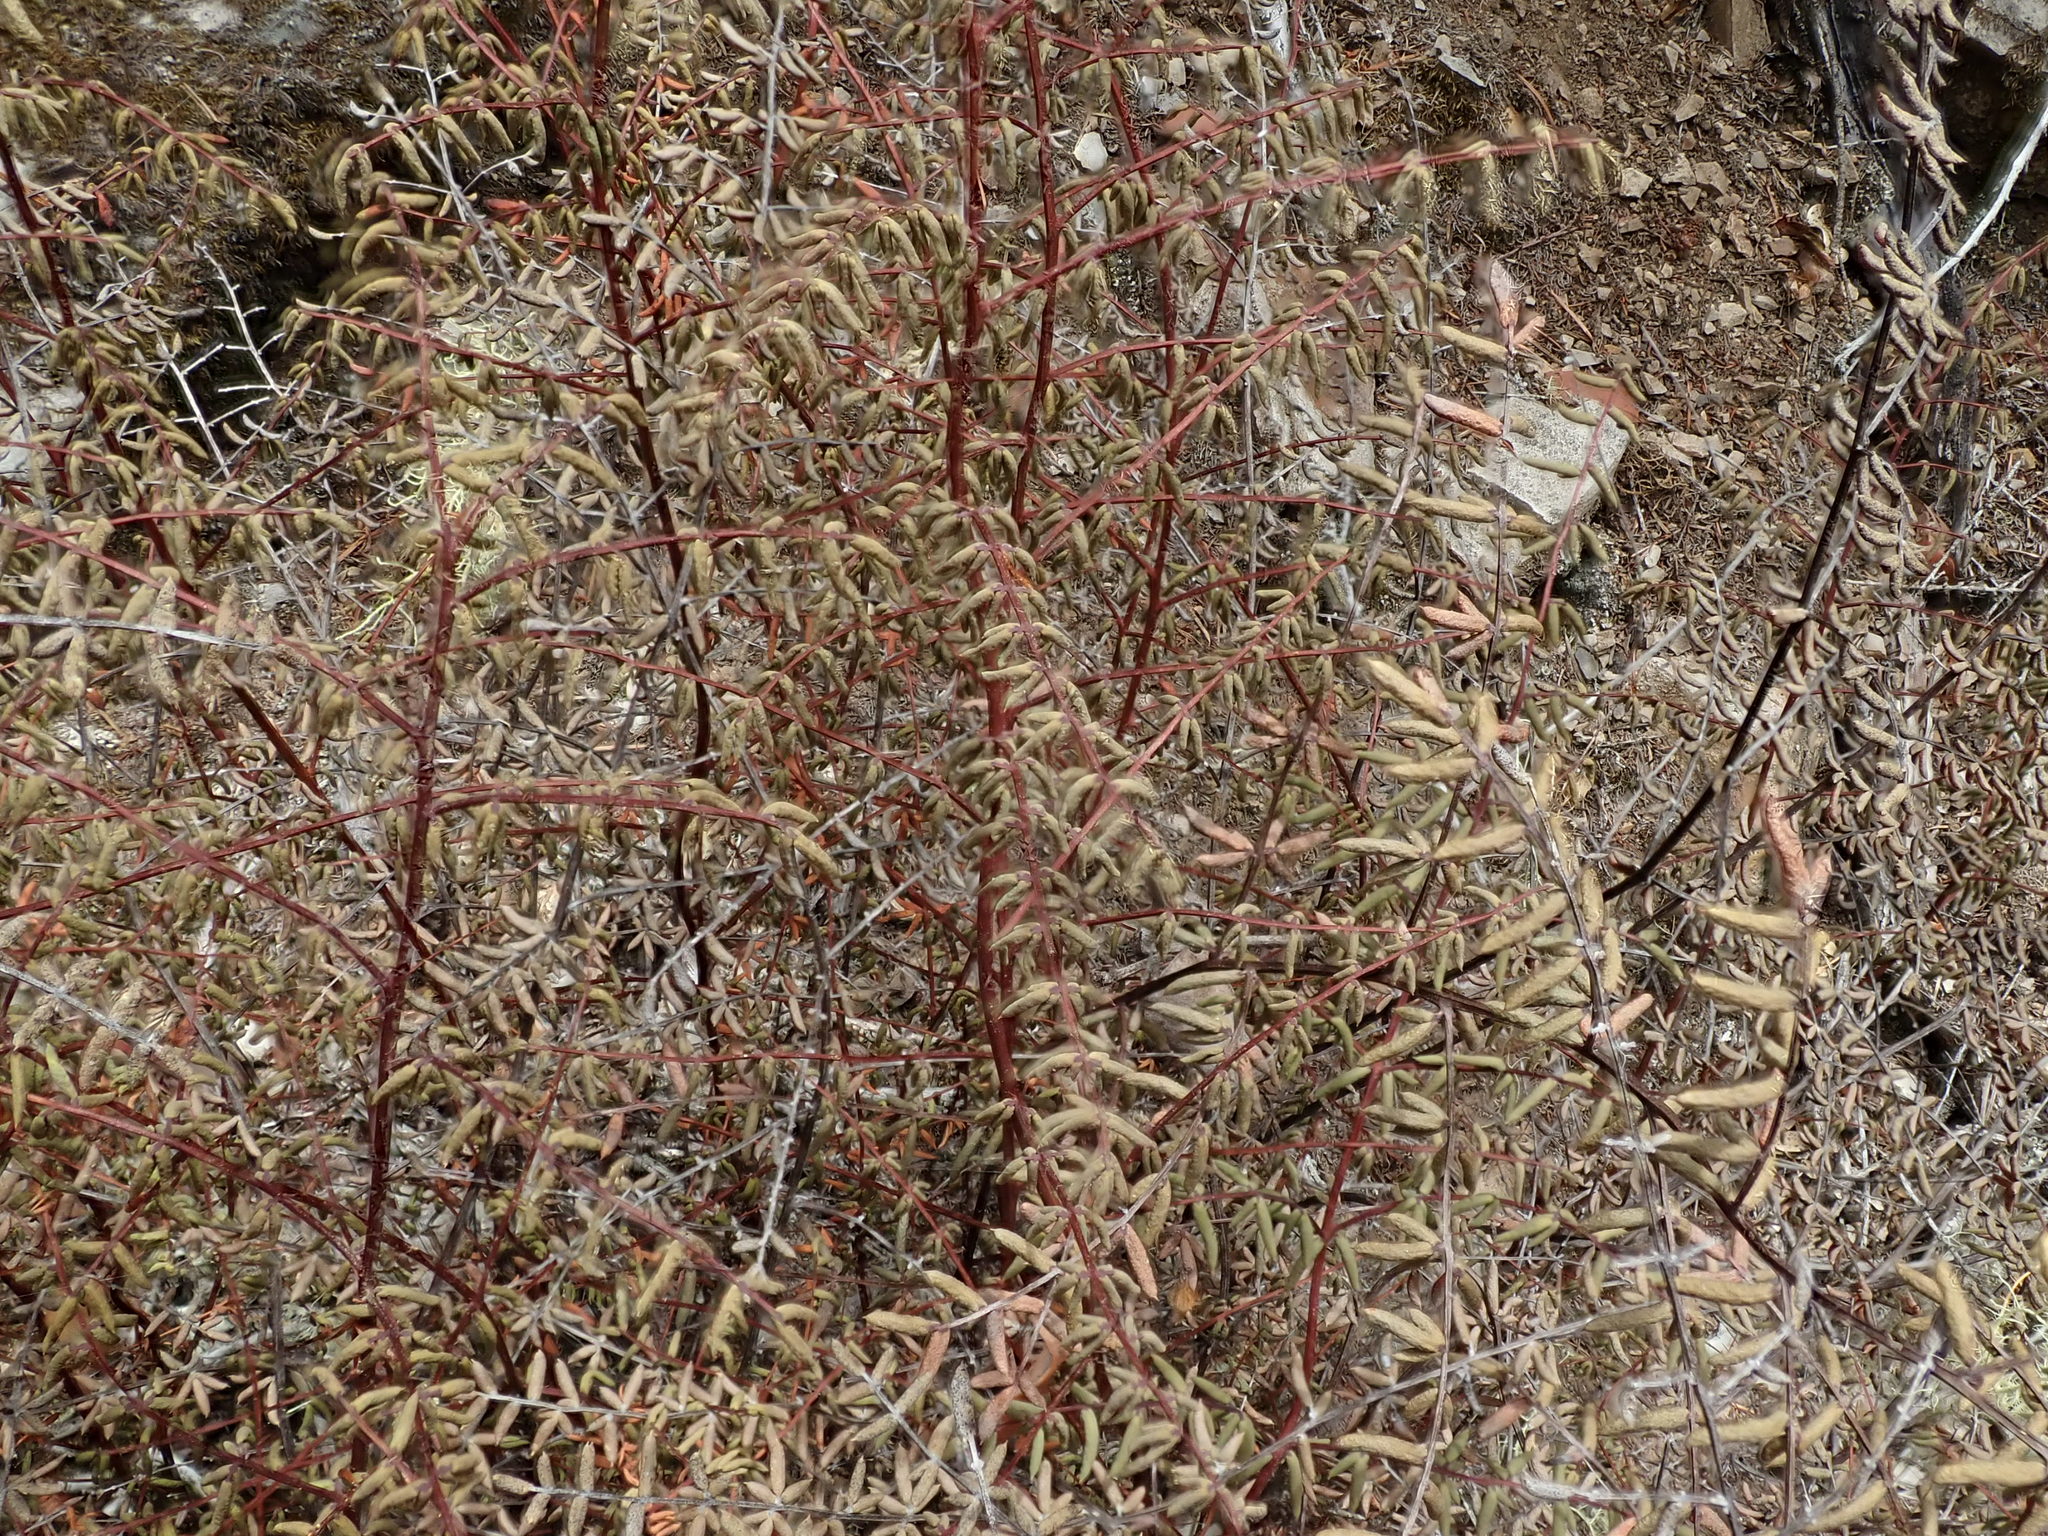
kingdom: Plantae
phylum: Tracheophyta
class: Polypodiopsida
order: Polypodiales
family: Pteridaceae
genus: Pellaea
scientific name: Pellaea mucronata
